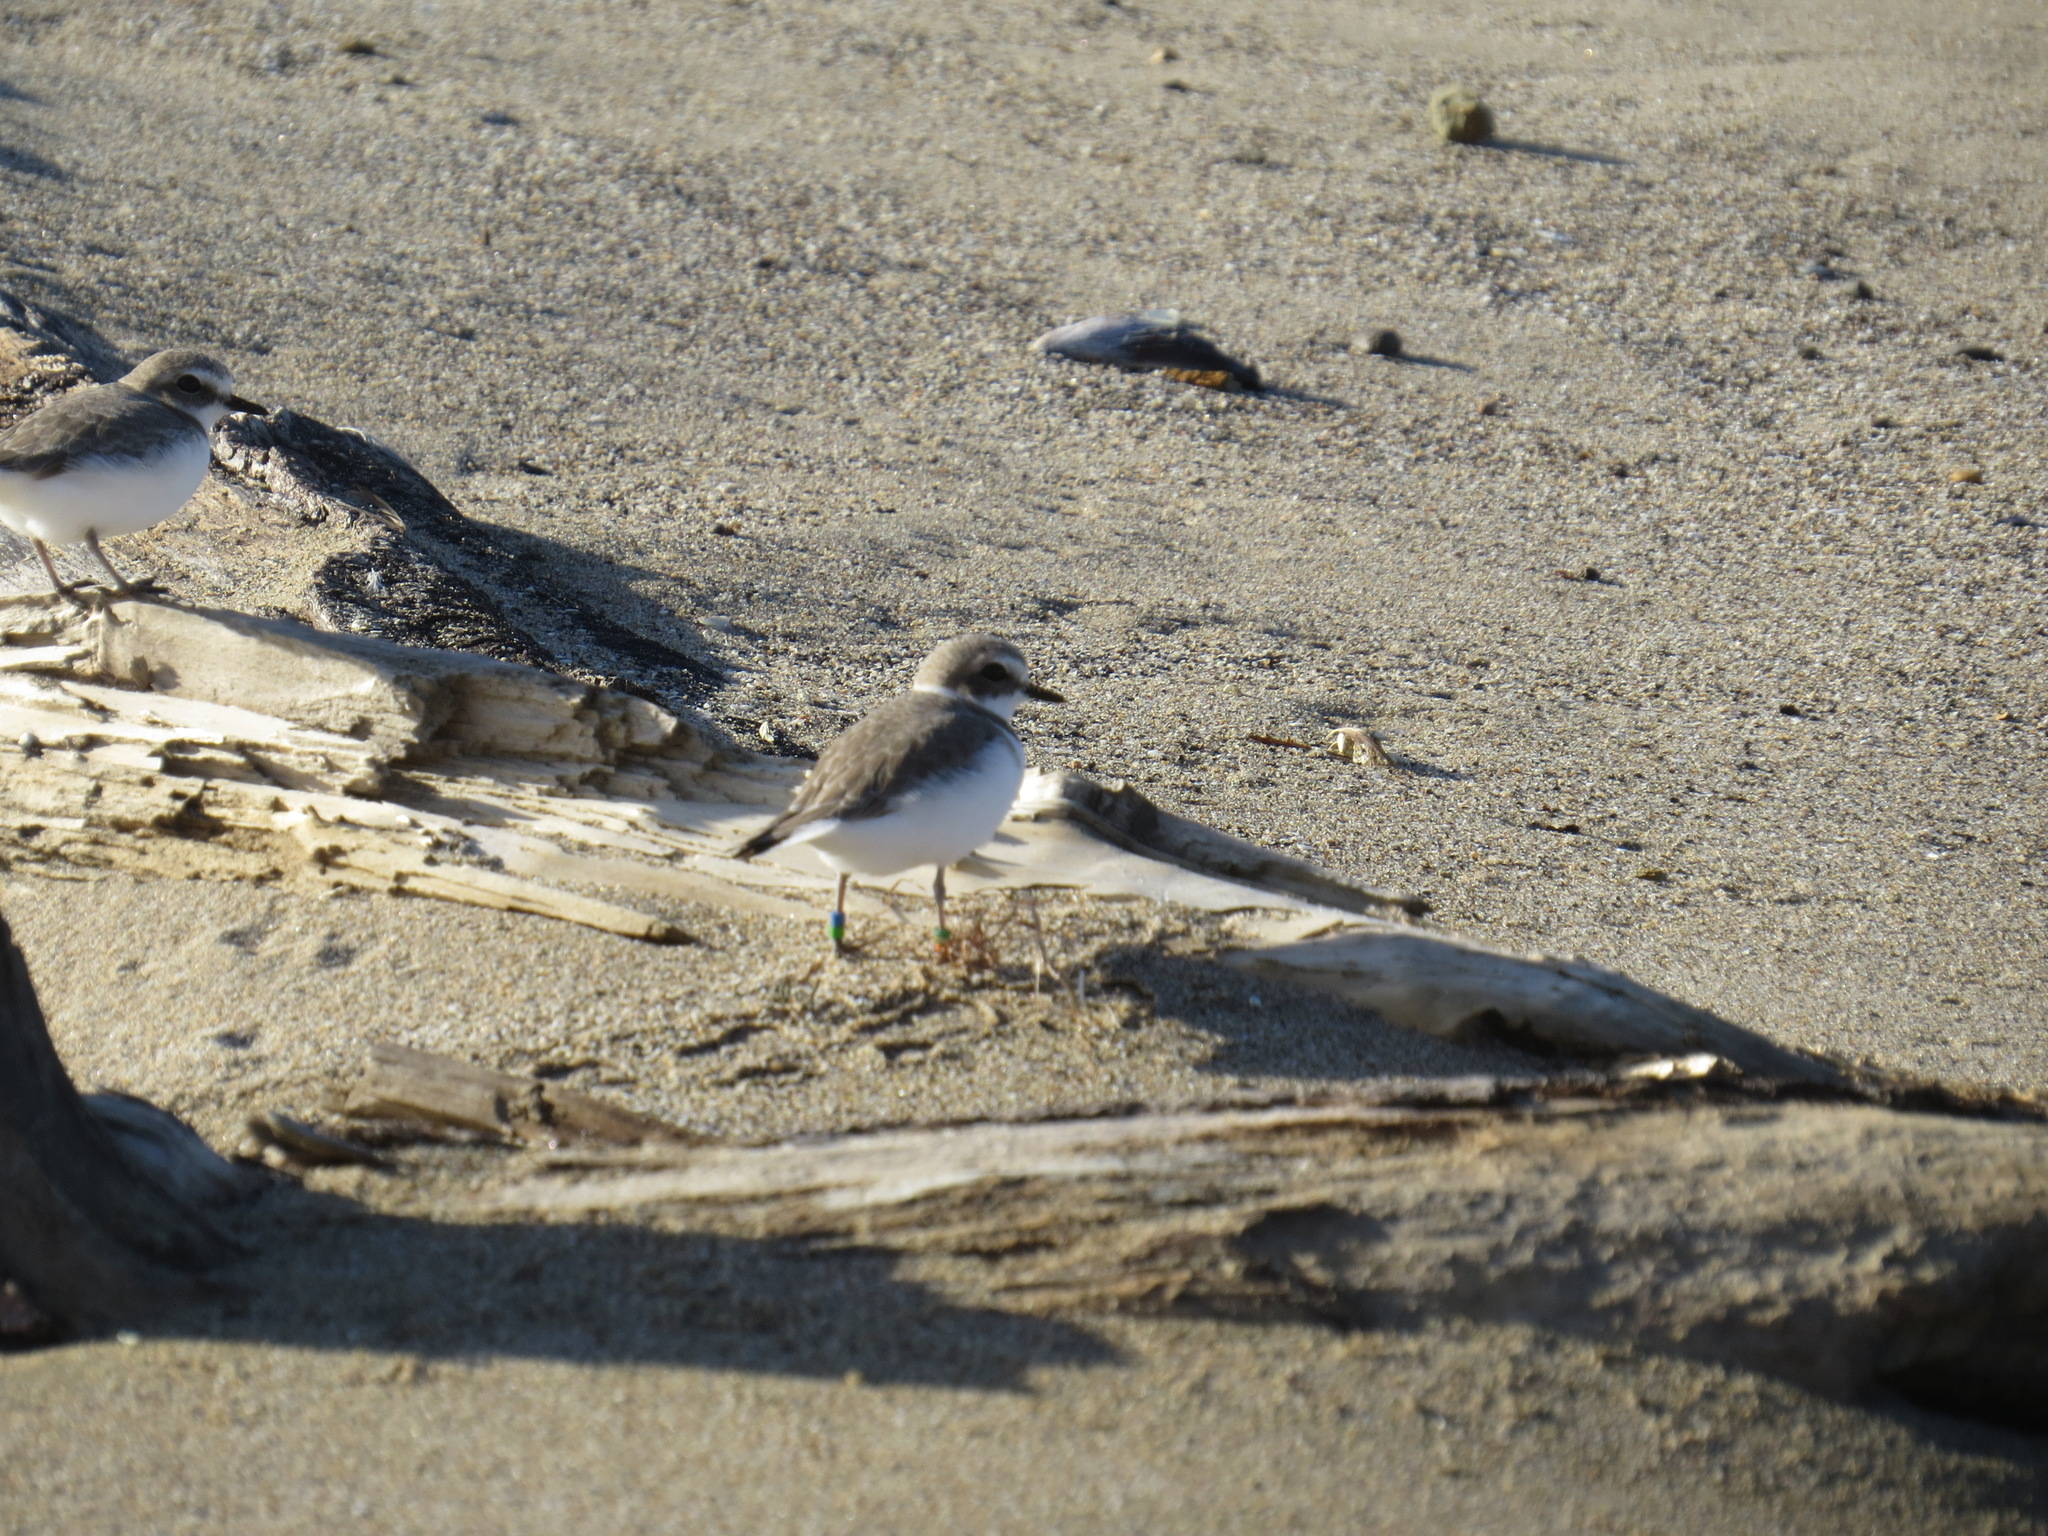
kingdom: Animalia
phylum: Chordata
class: Aves
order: Charadriiformes
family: Charadriidae
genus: Anarhynchus
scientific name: Anarhynchus
